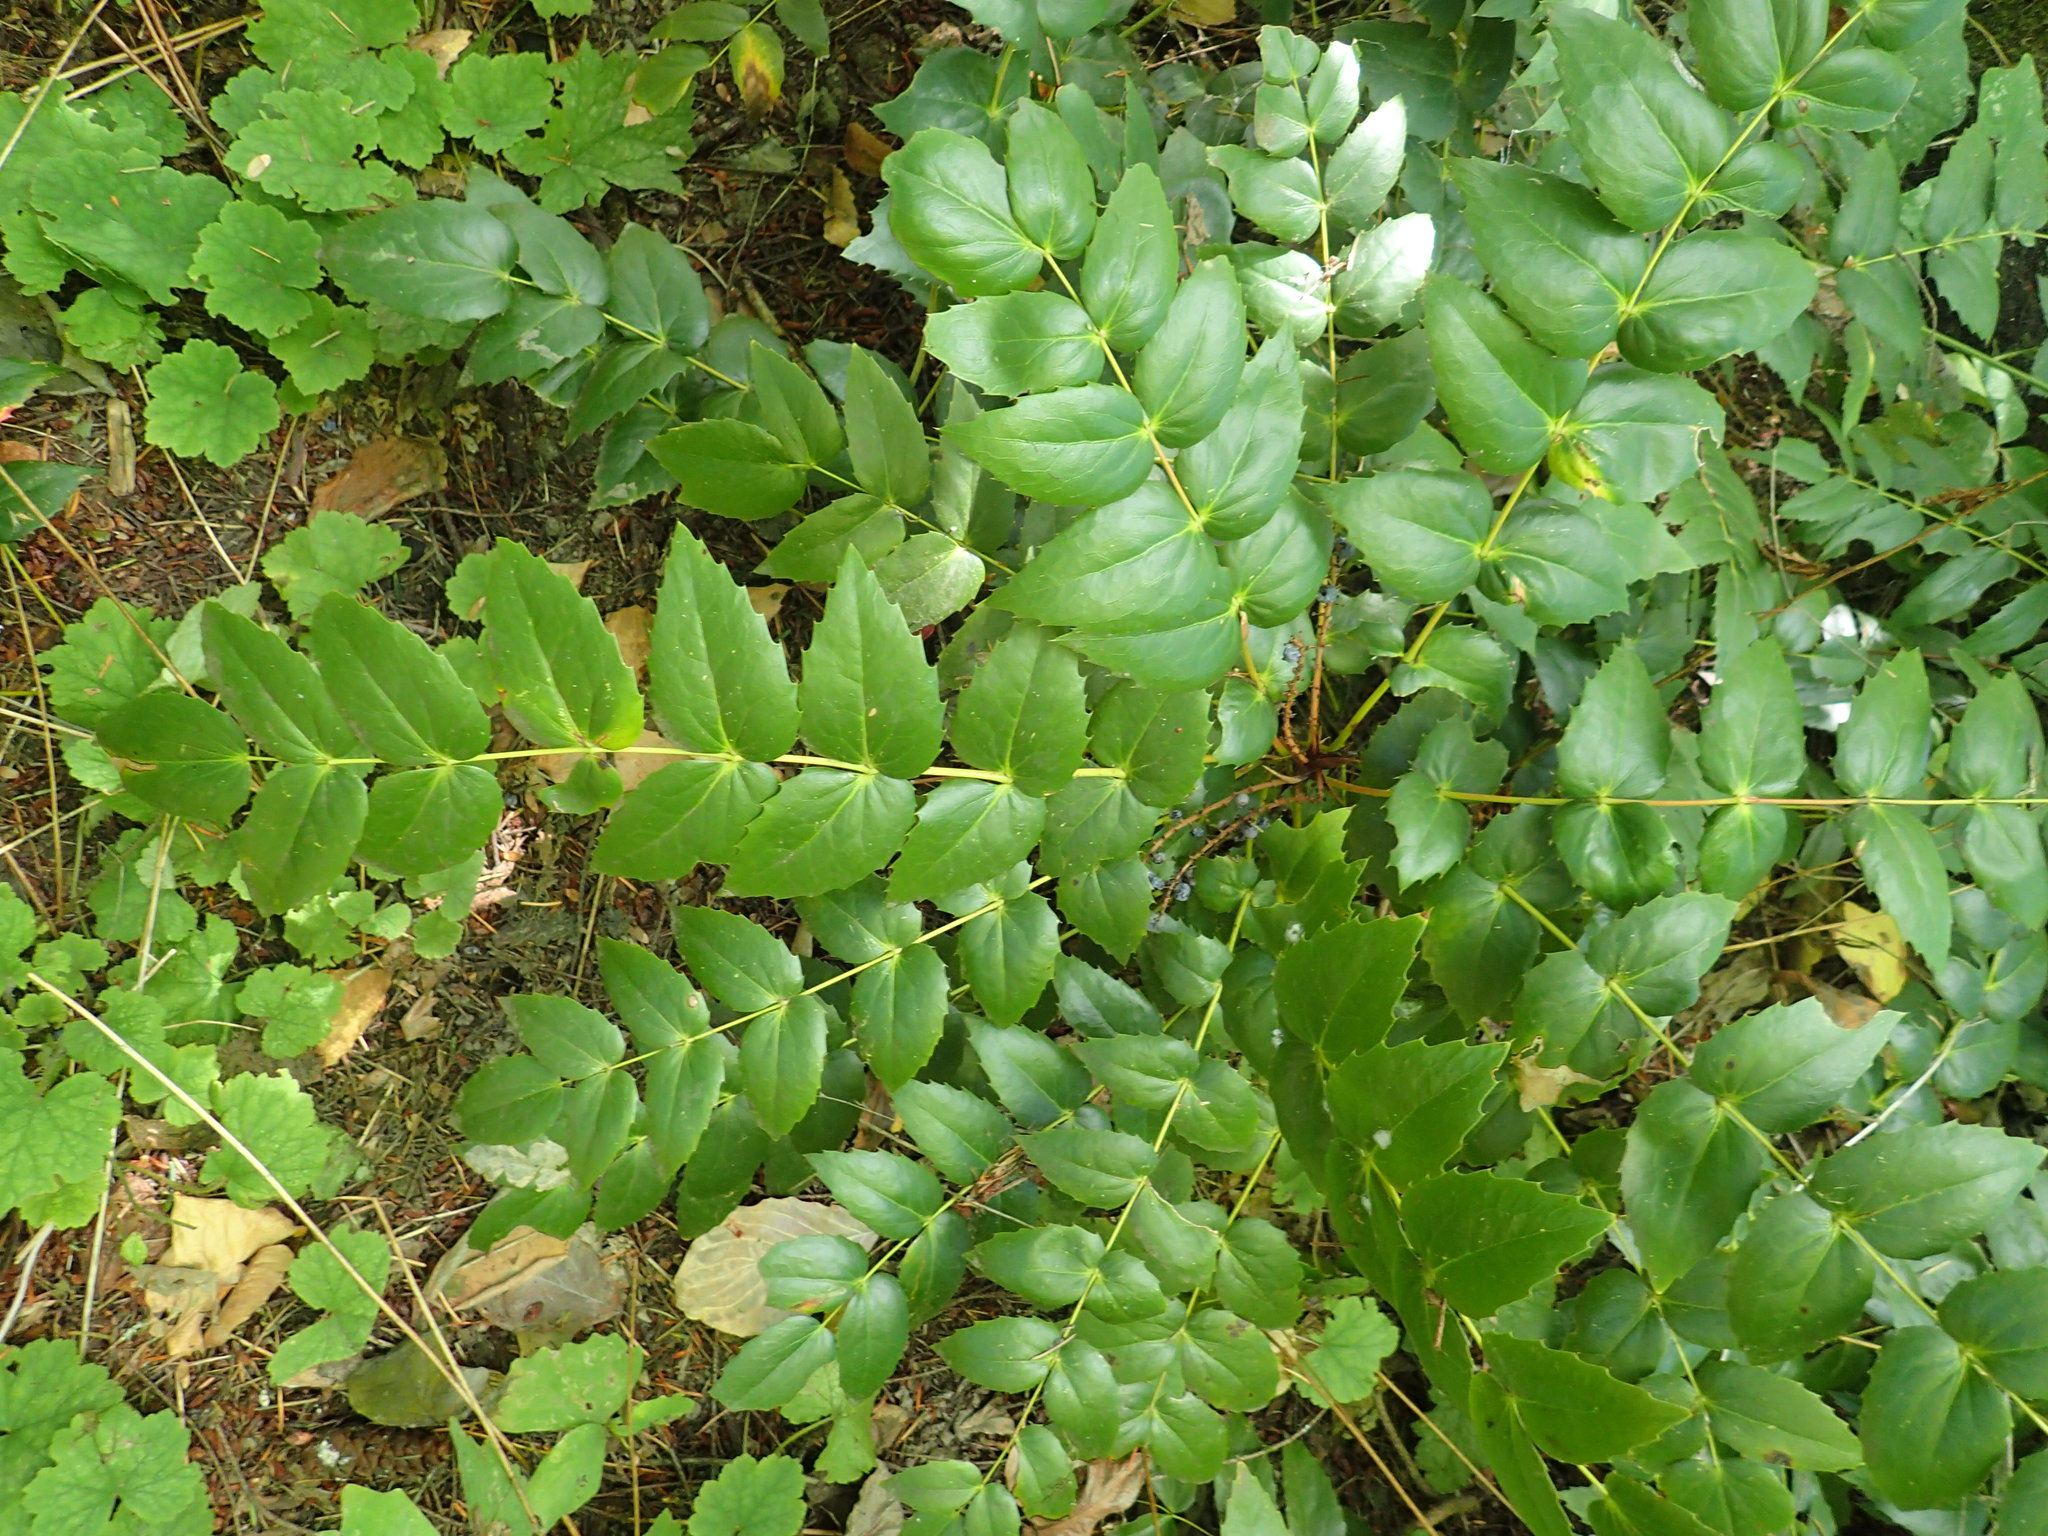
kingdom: Plantae
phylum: Tracheophyta
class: Magnoliopsida
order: Ranunculales
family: Berberidaceae
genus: Mahonia
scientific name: Mahonia nervosa
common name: Cascade oregon-grape
